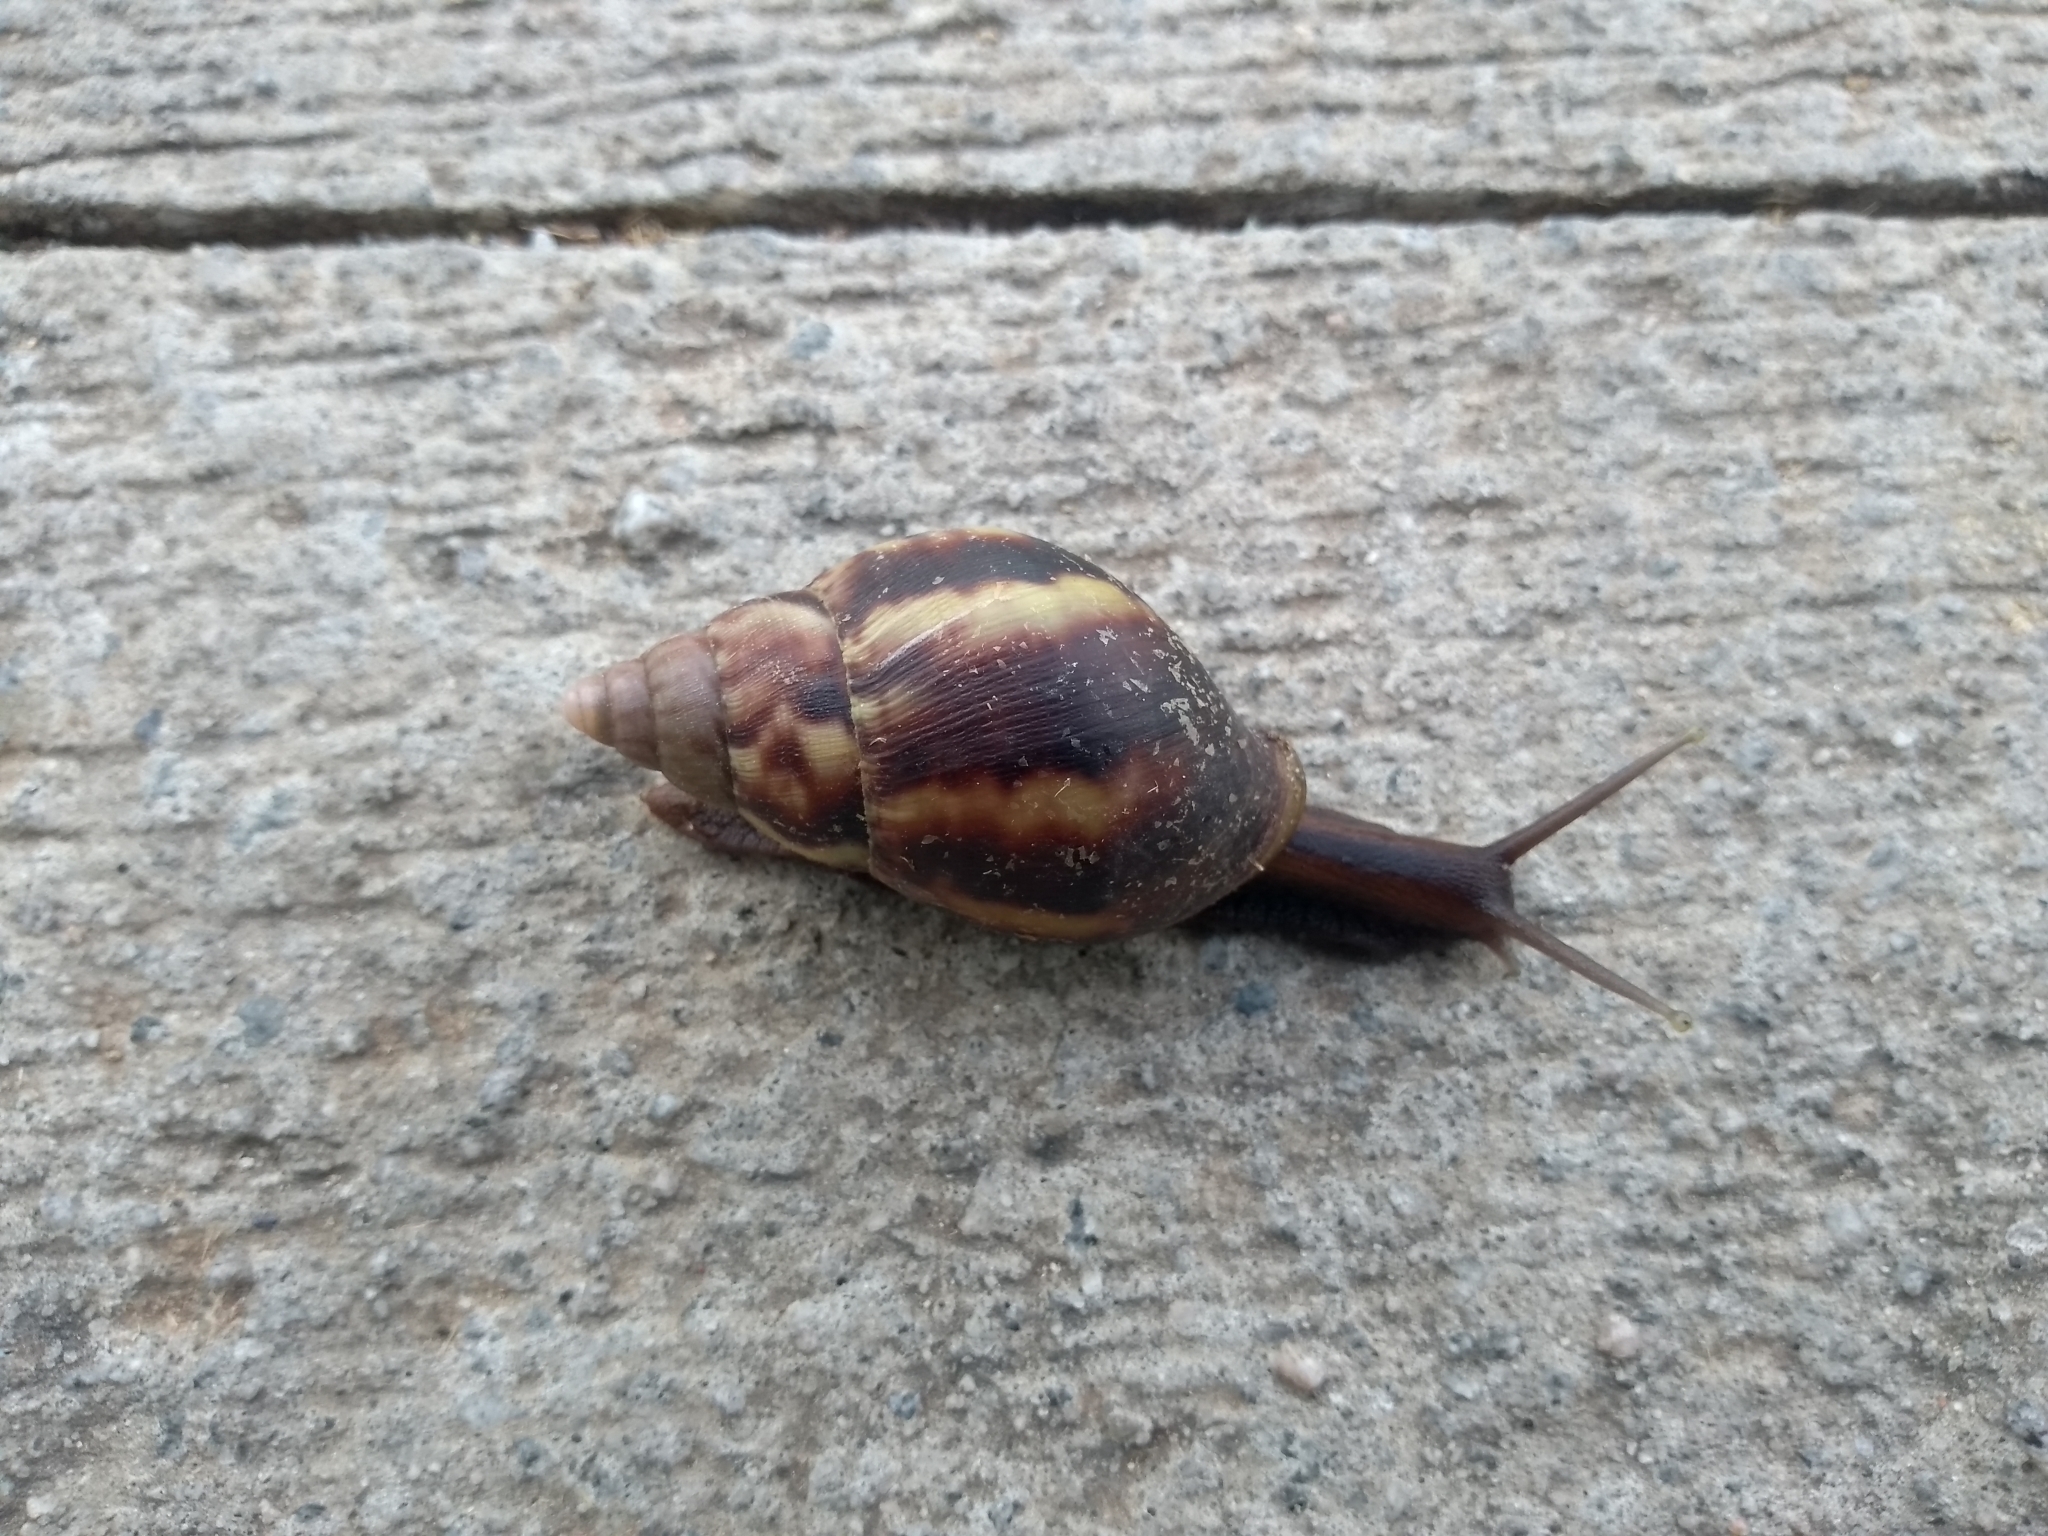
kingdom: Animalia
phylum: Mollusca
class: Gastropoda
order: Stylommatophora
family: Achatinidae
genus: Lissachatina
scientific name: Lissachatina fulica
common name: Giant african snail
